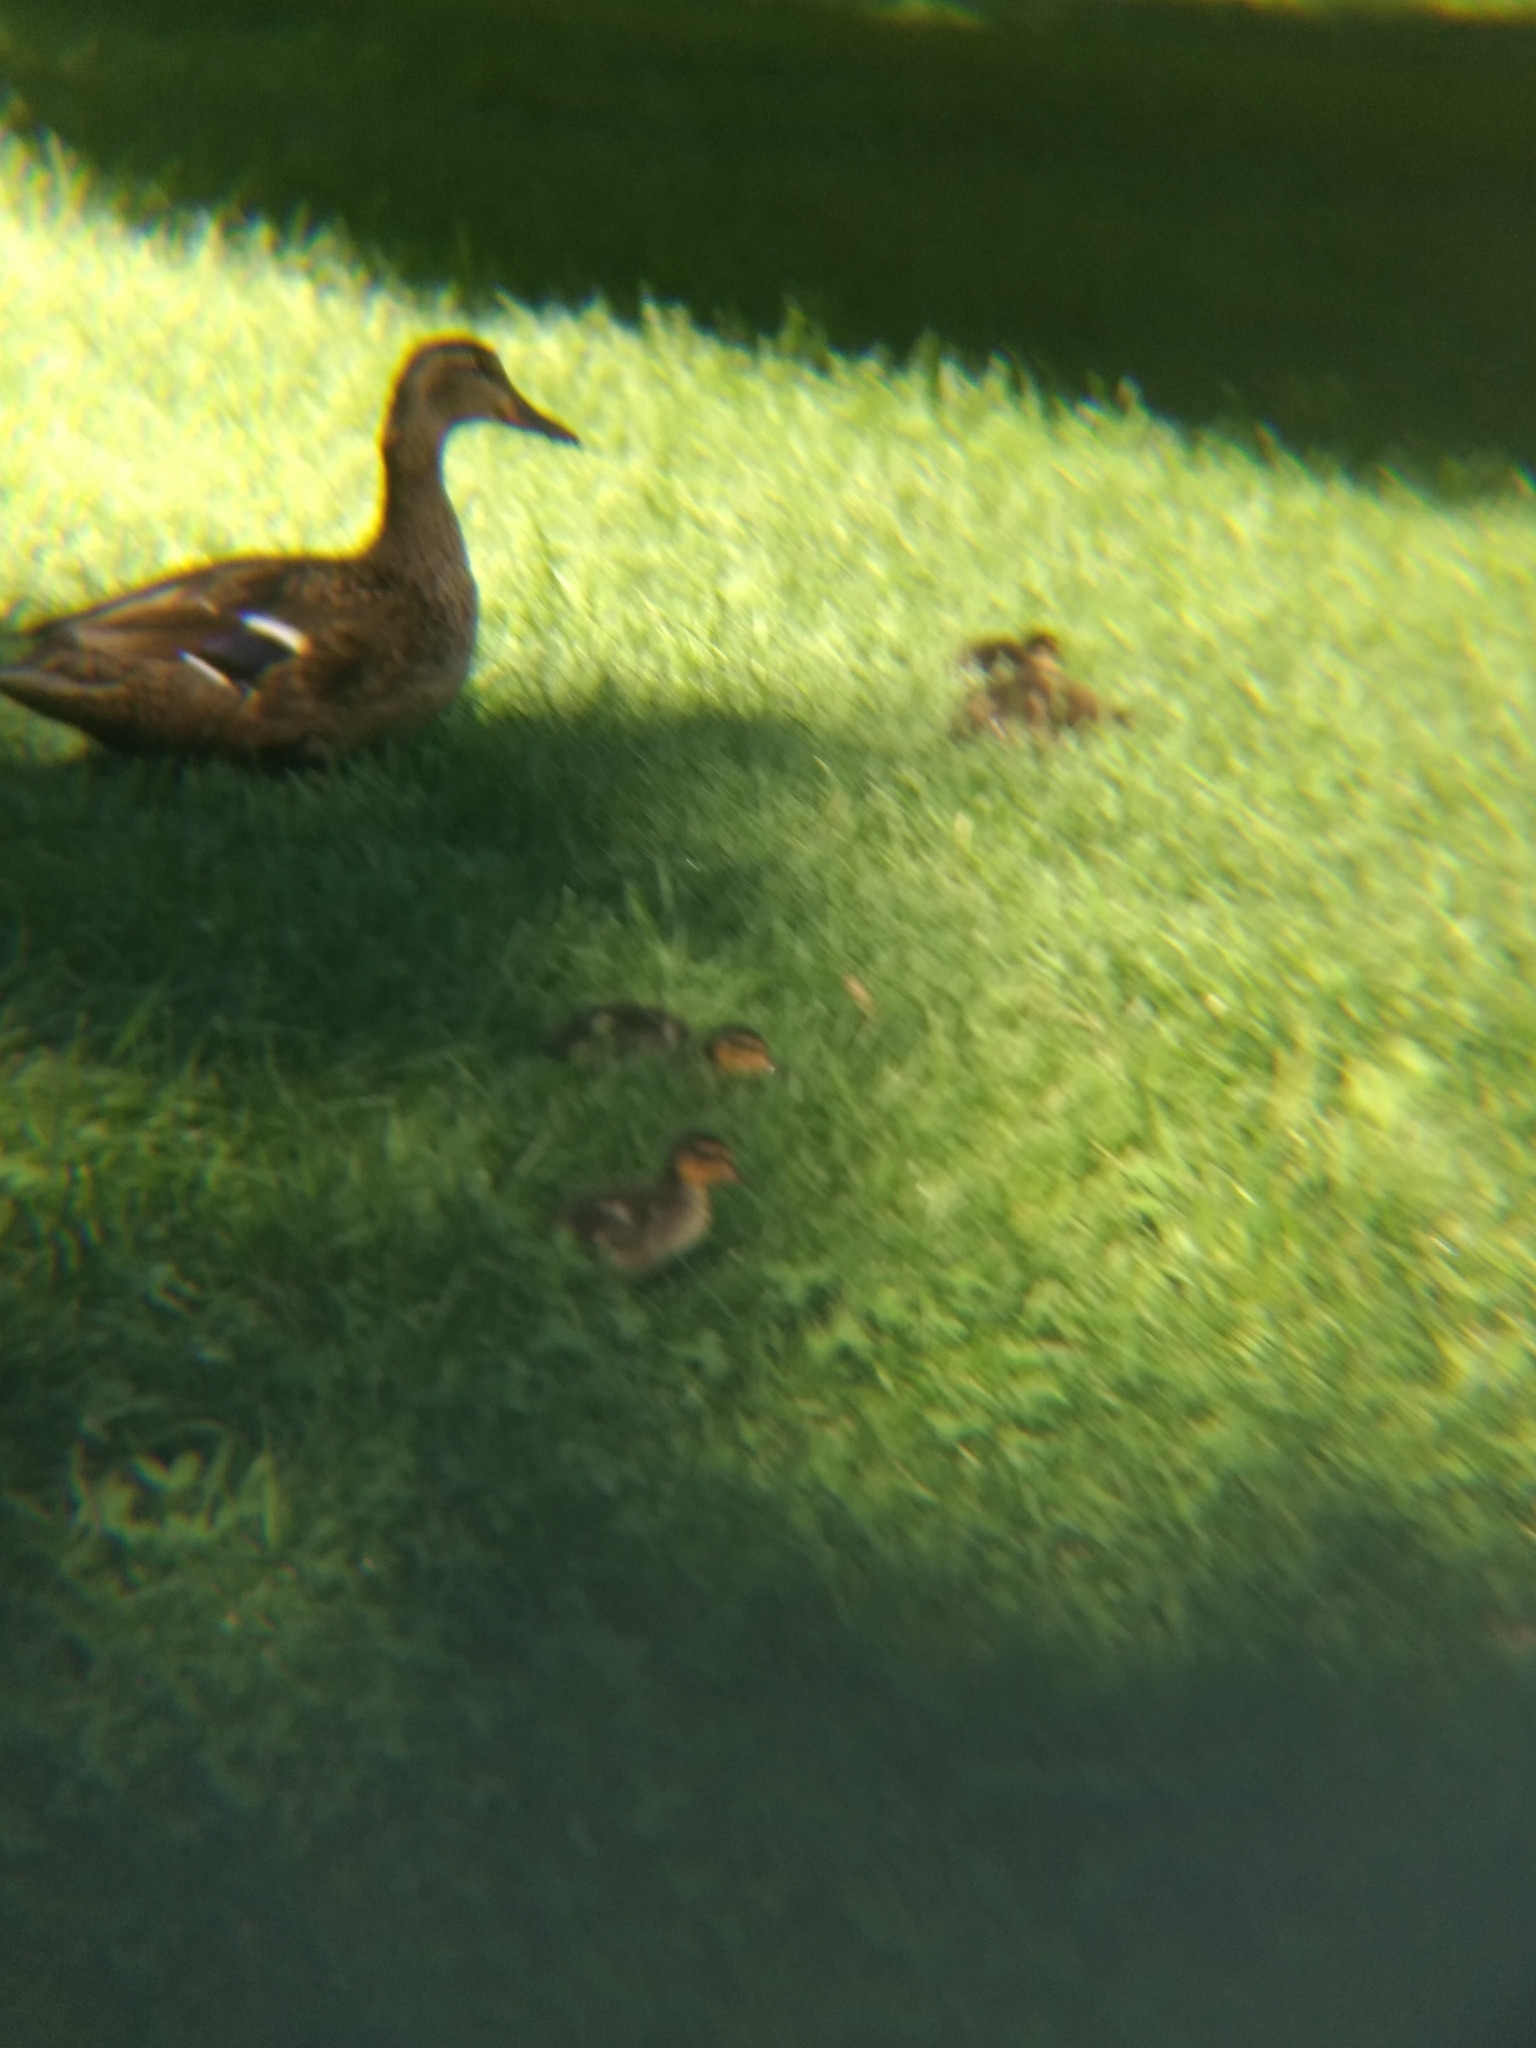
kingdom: Animalia
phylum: Chordata
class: Aves
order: Anseriformes
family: Anatidae
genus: Anas
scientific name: Anas platyrhynchos
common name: Mallard
